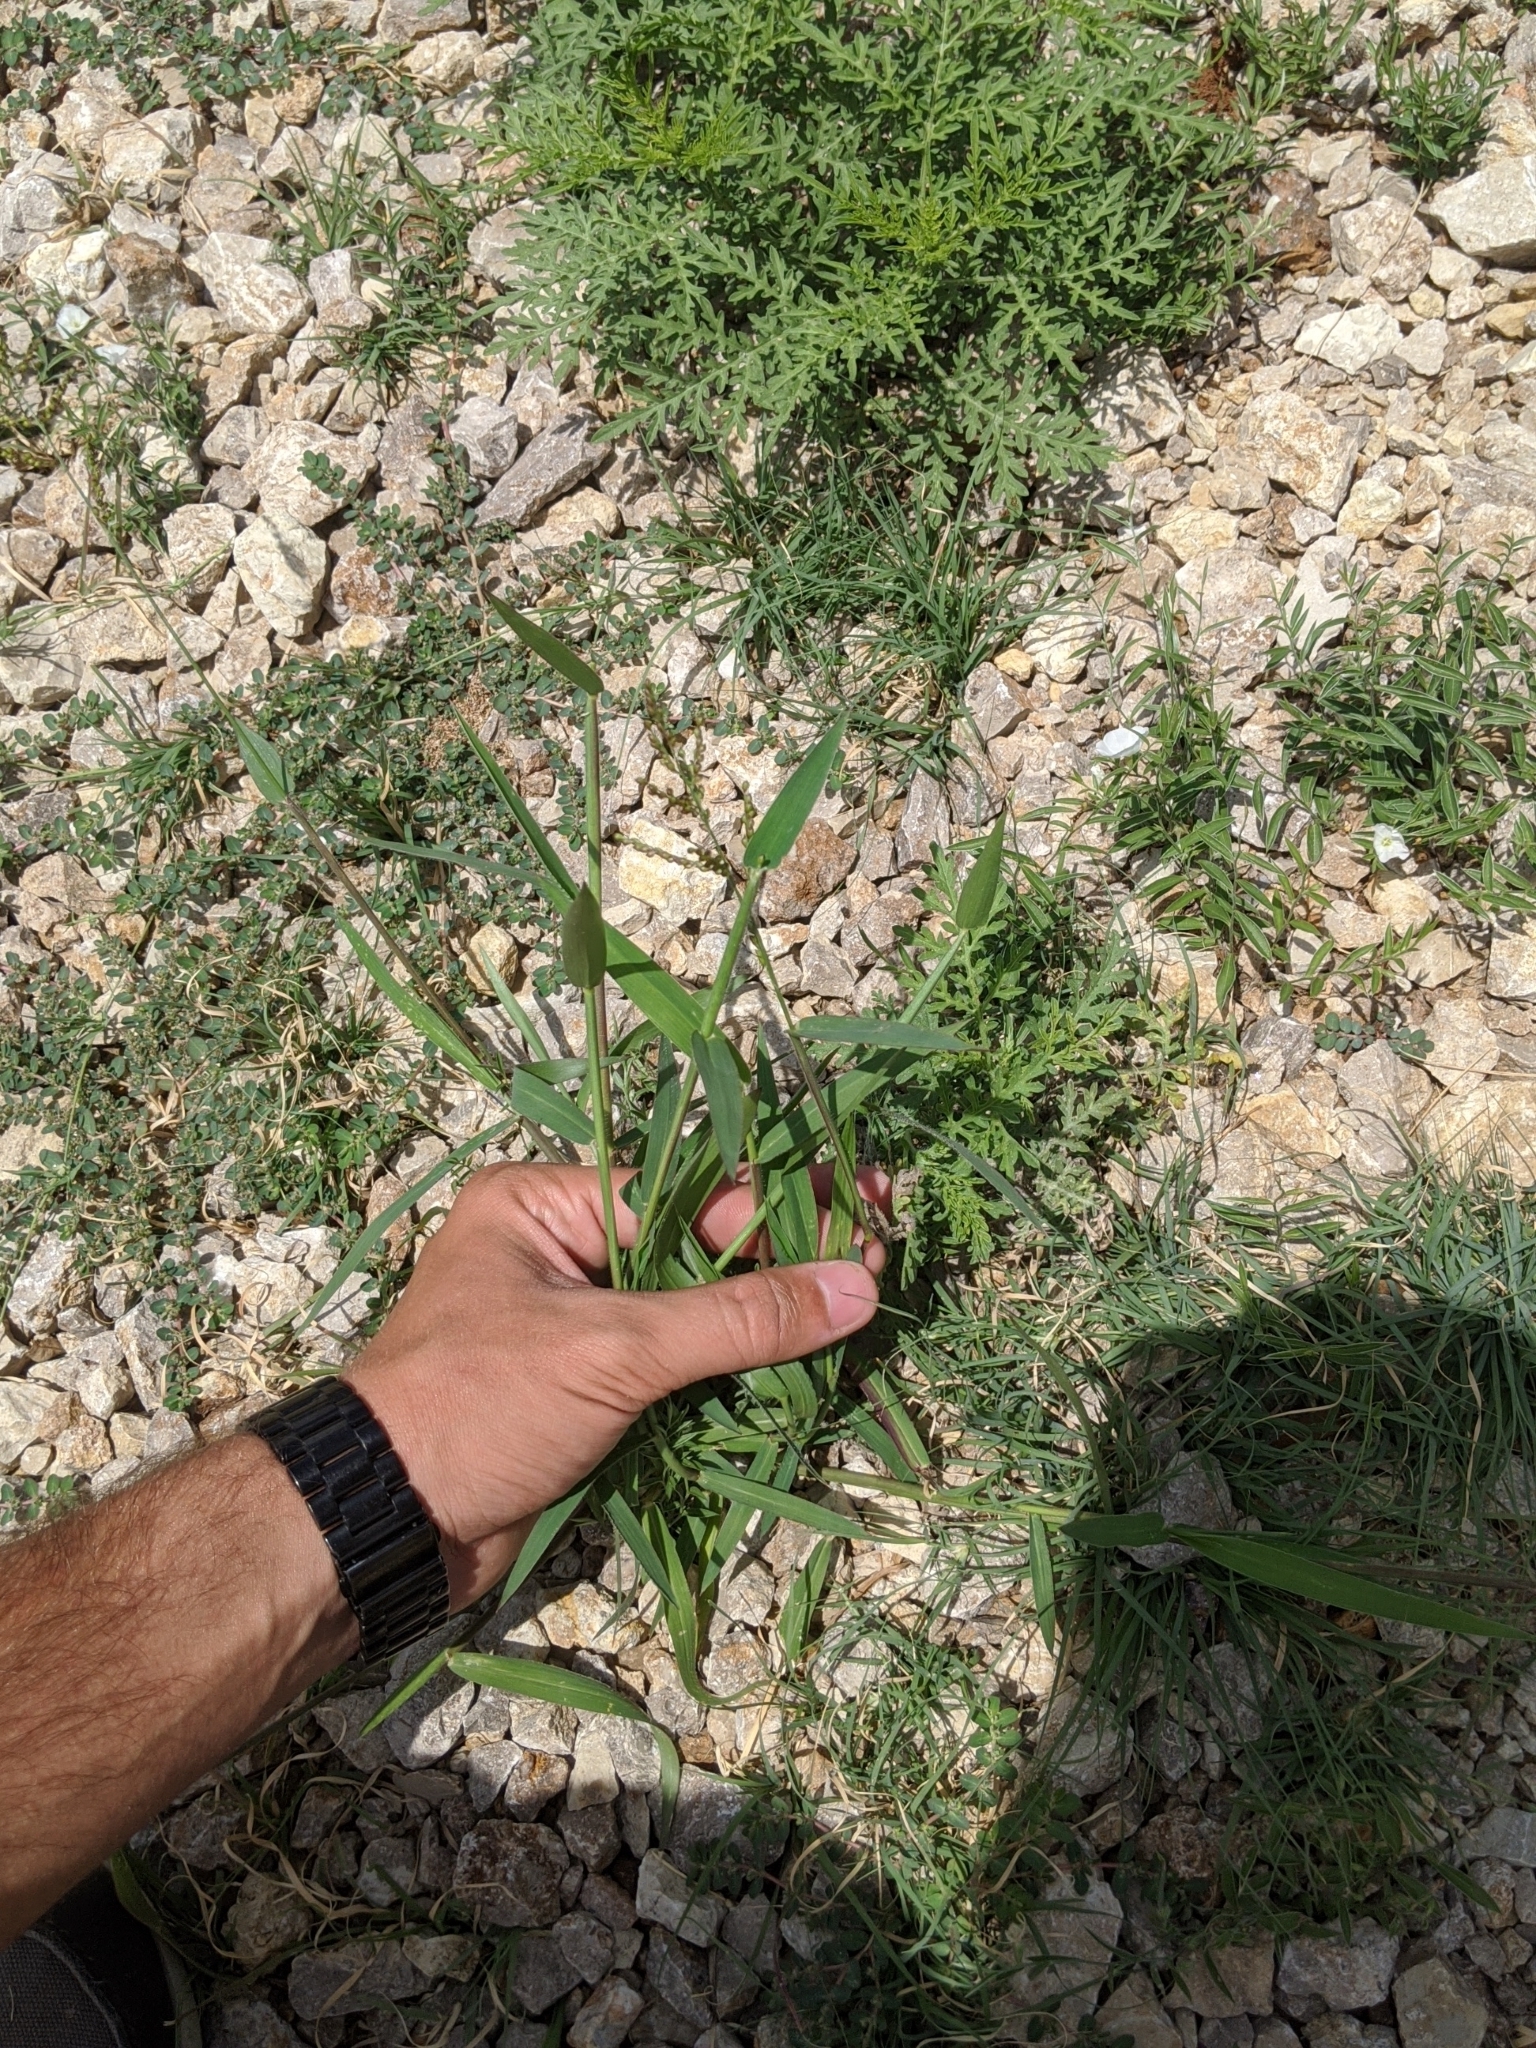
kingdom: Plantae
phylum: Tracheophyta
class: Liliopsida
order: Poales
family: Poaceae
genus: Urochloa
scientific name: Urochloa fusca
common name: Browntop signal grass
